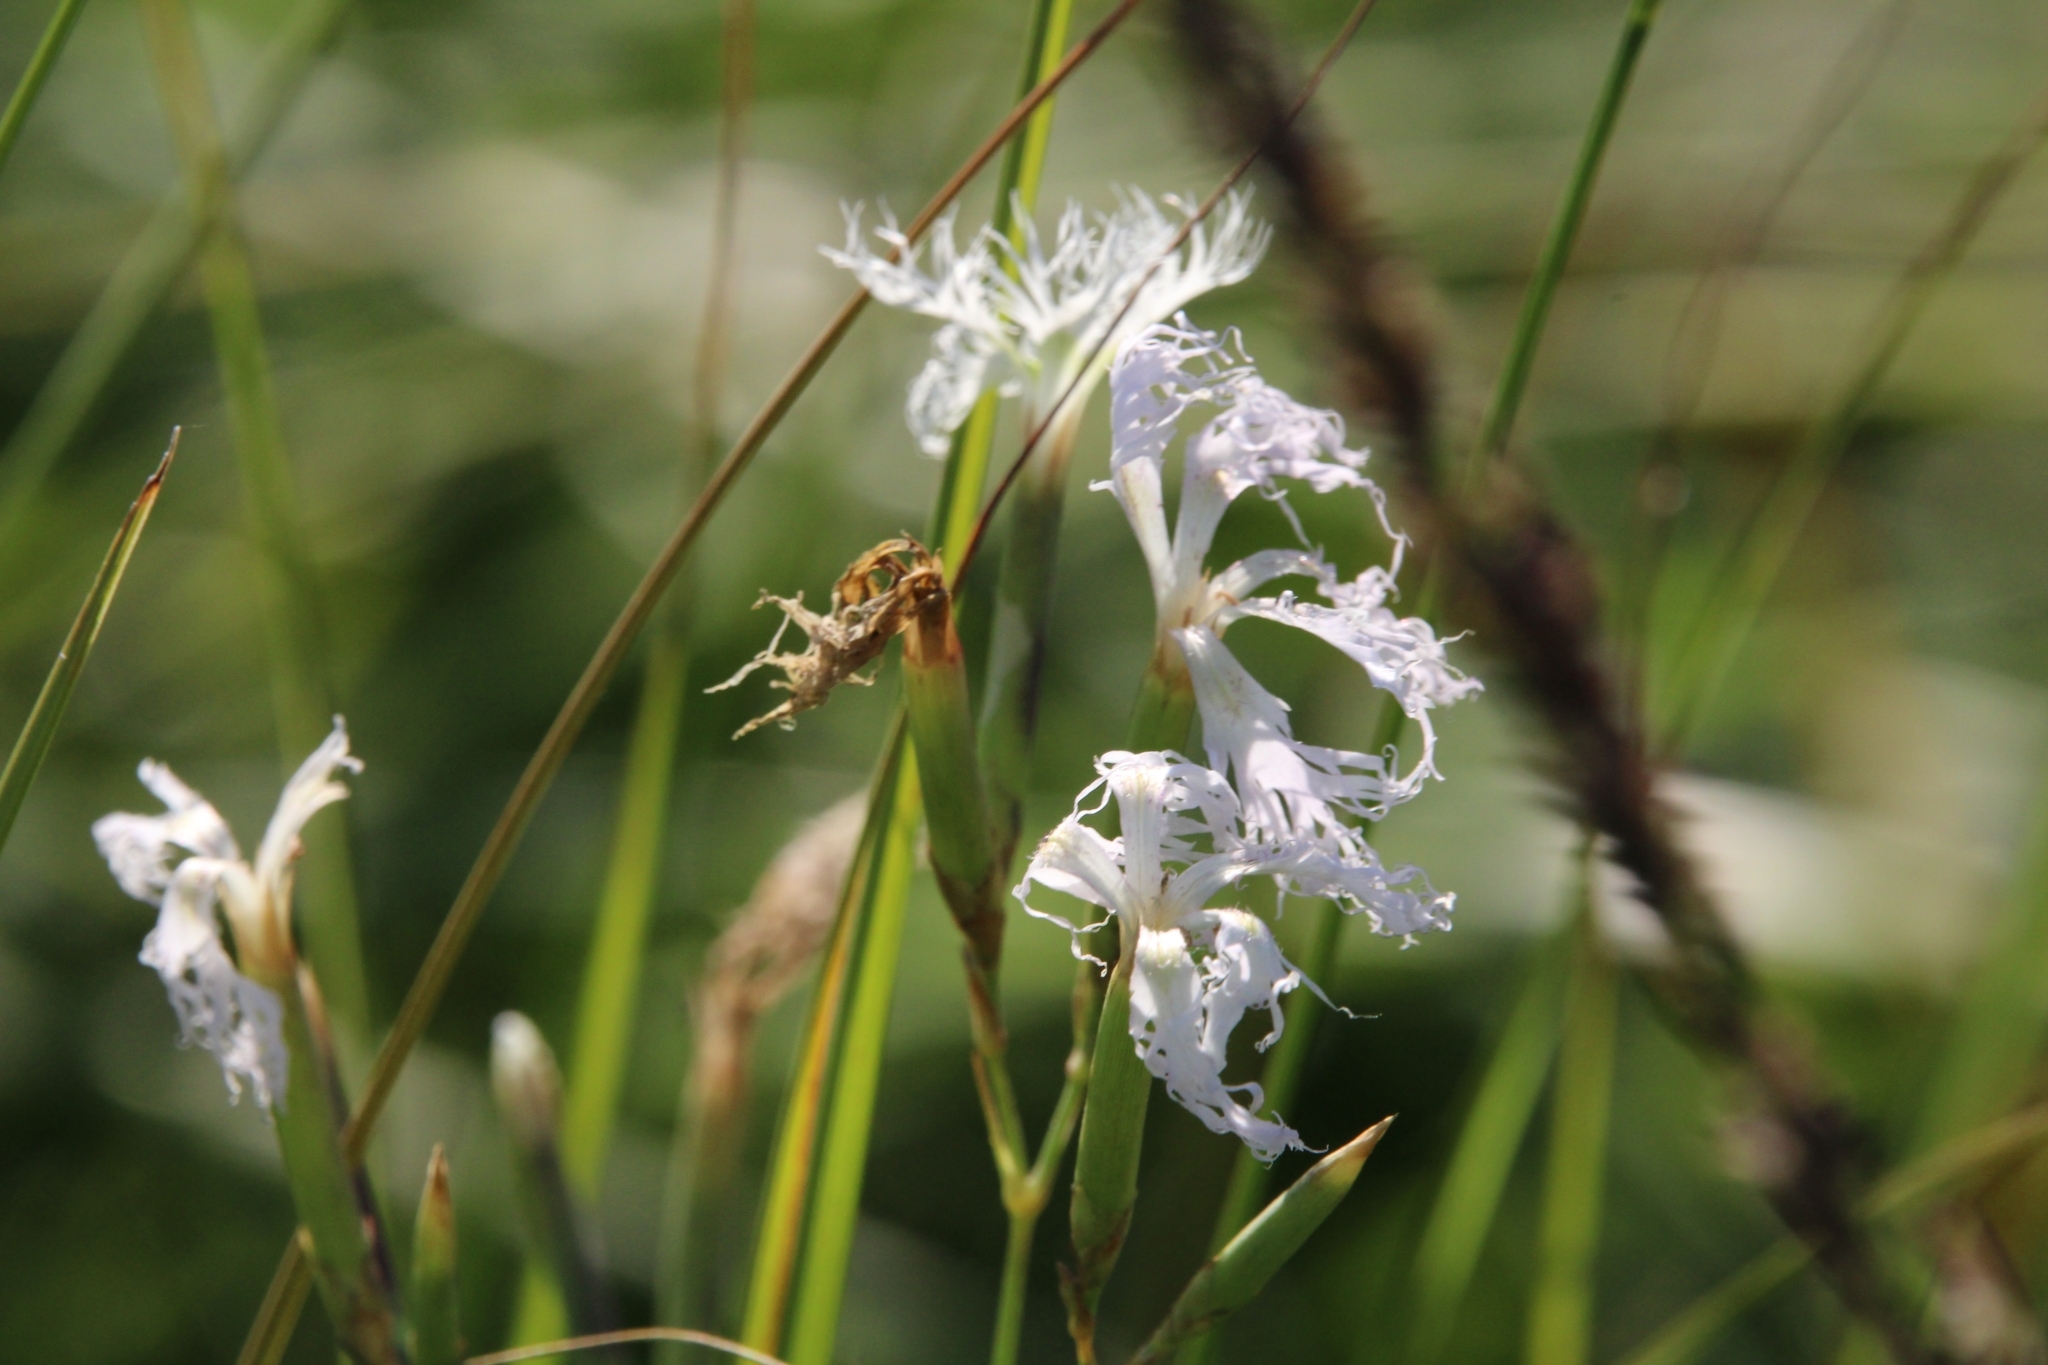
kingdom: Plantae
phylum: Tracheophyta
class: Magnoliopsida
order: Caryophyllales
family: Caryophyllaceae
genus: Dianthus
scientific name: Dianthus superbus
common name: Fringed pink
